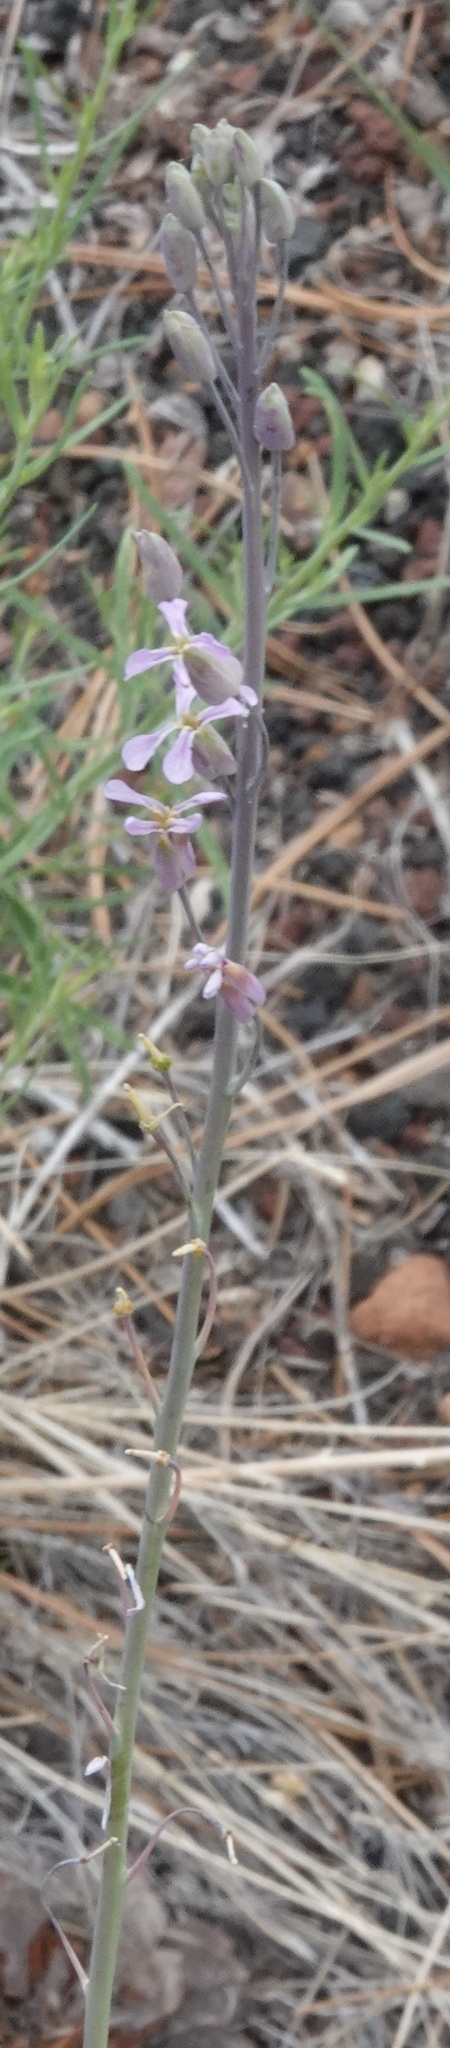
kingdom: Plantae
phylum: Tracheophyta
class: Magnoliopsida
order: Brassicales
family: Brassicaceae
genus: Hesperidanthus
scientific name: Hesperidanthus linearifolius
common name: Slim-leaf plains mustard
